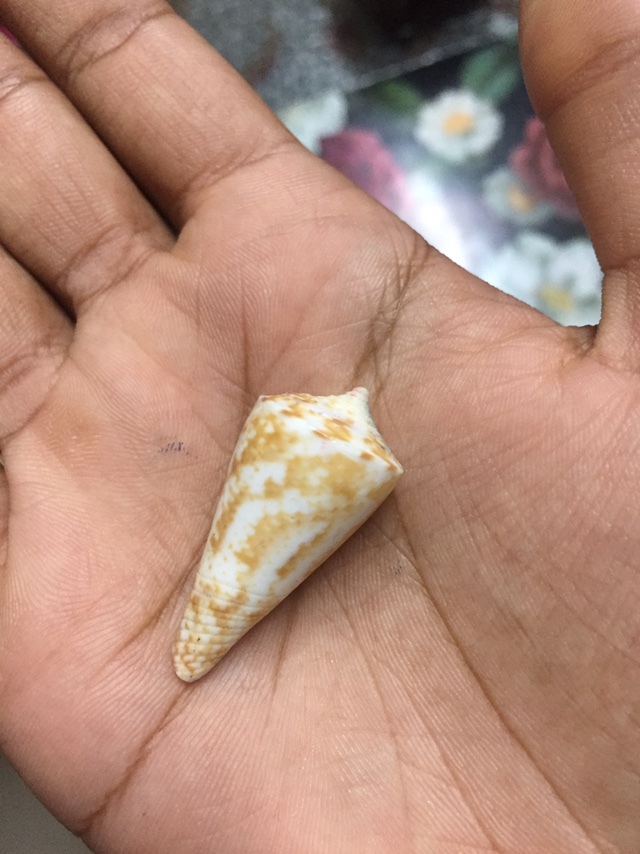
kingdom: Animalia
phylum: Mollusca
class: Gastropoda
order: Neogastropoda
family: Conidae
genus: Conasprella
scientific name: Conasprella dictator
